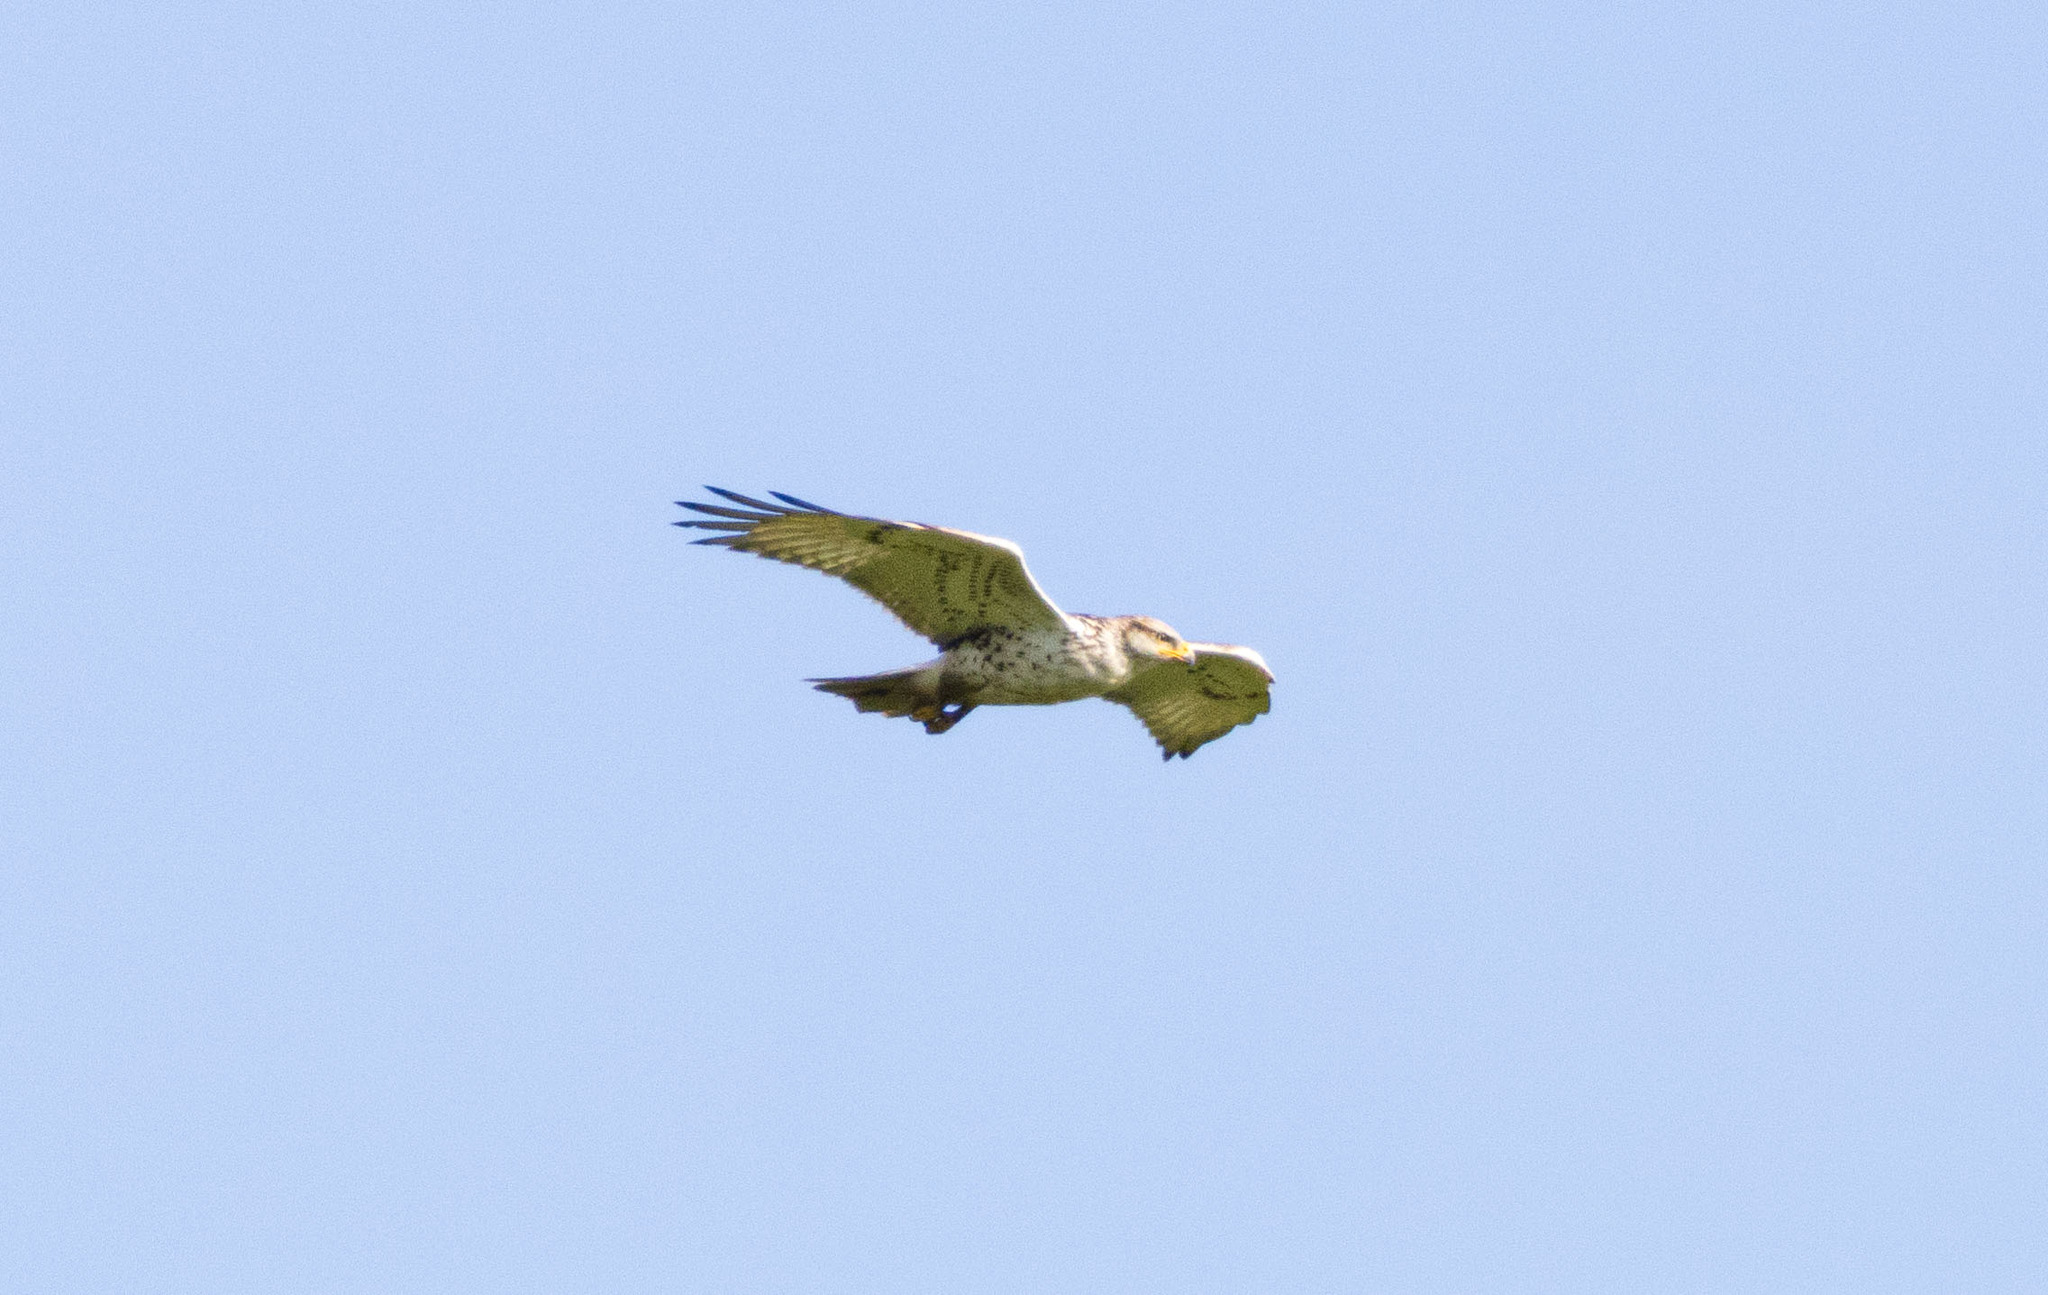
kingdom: Animalia
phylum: Chordata
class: Aves
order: Accipitriformes
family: Accipitridae
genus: Buteo
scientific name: Buteo regalis
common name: Ferruginous hawk
